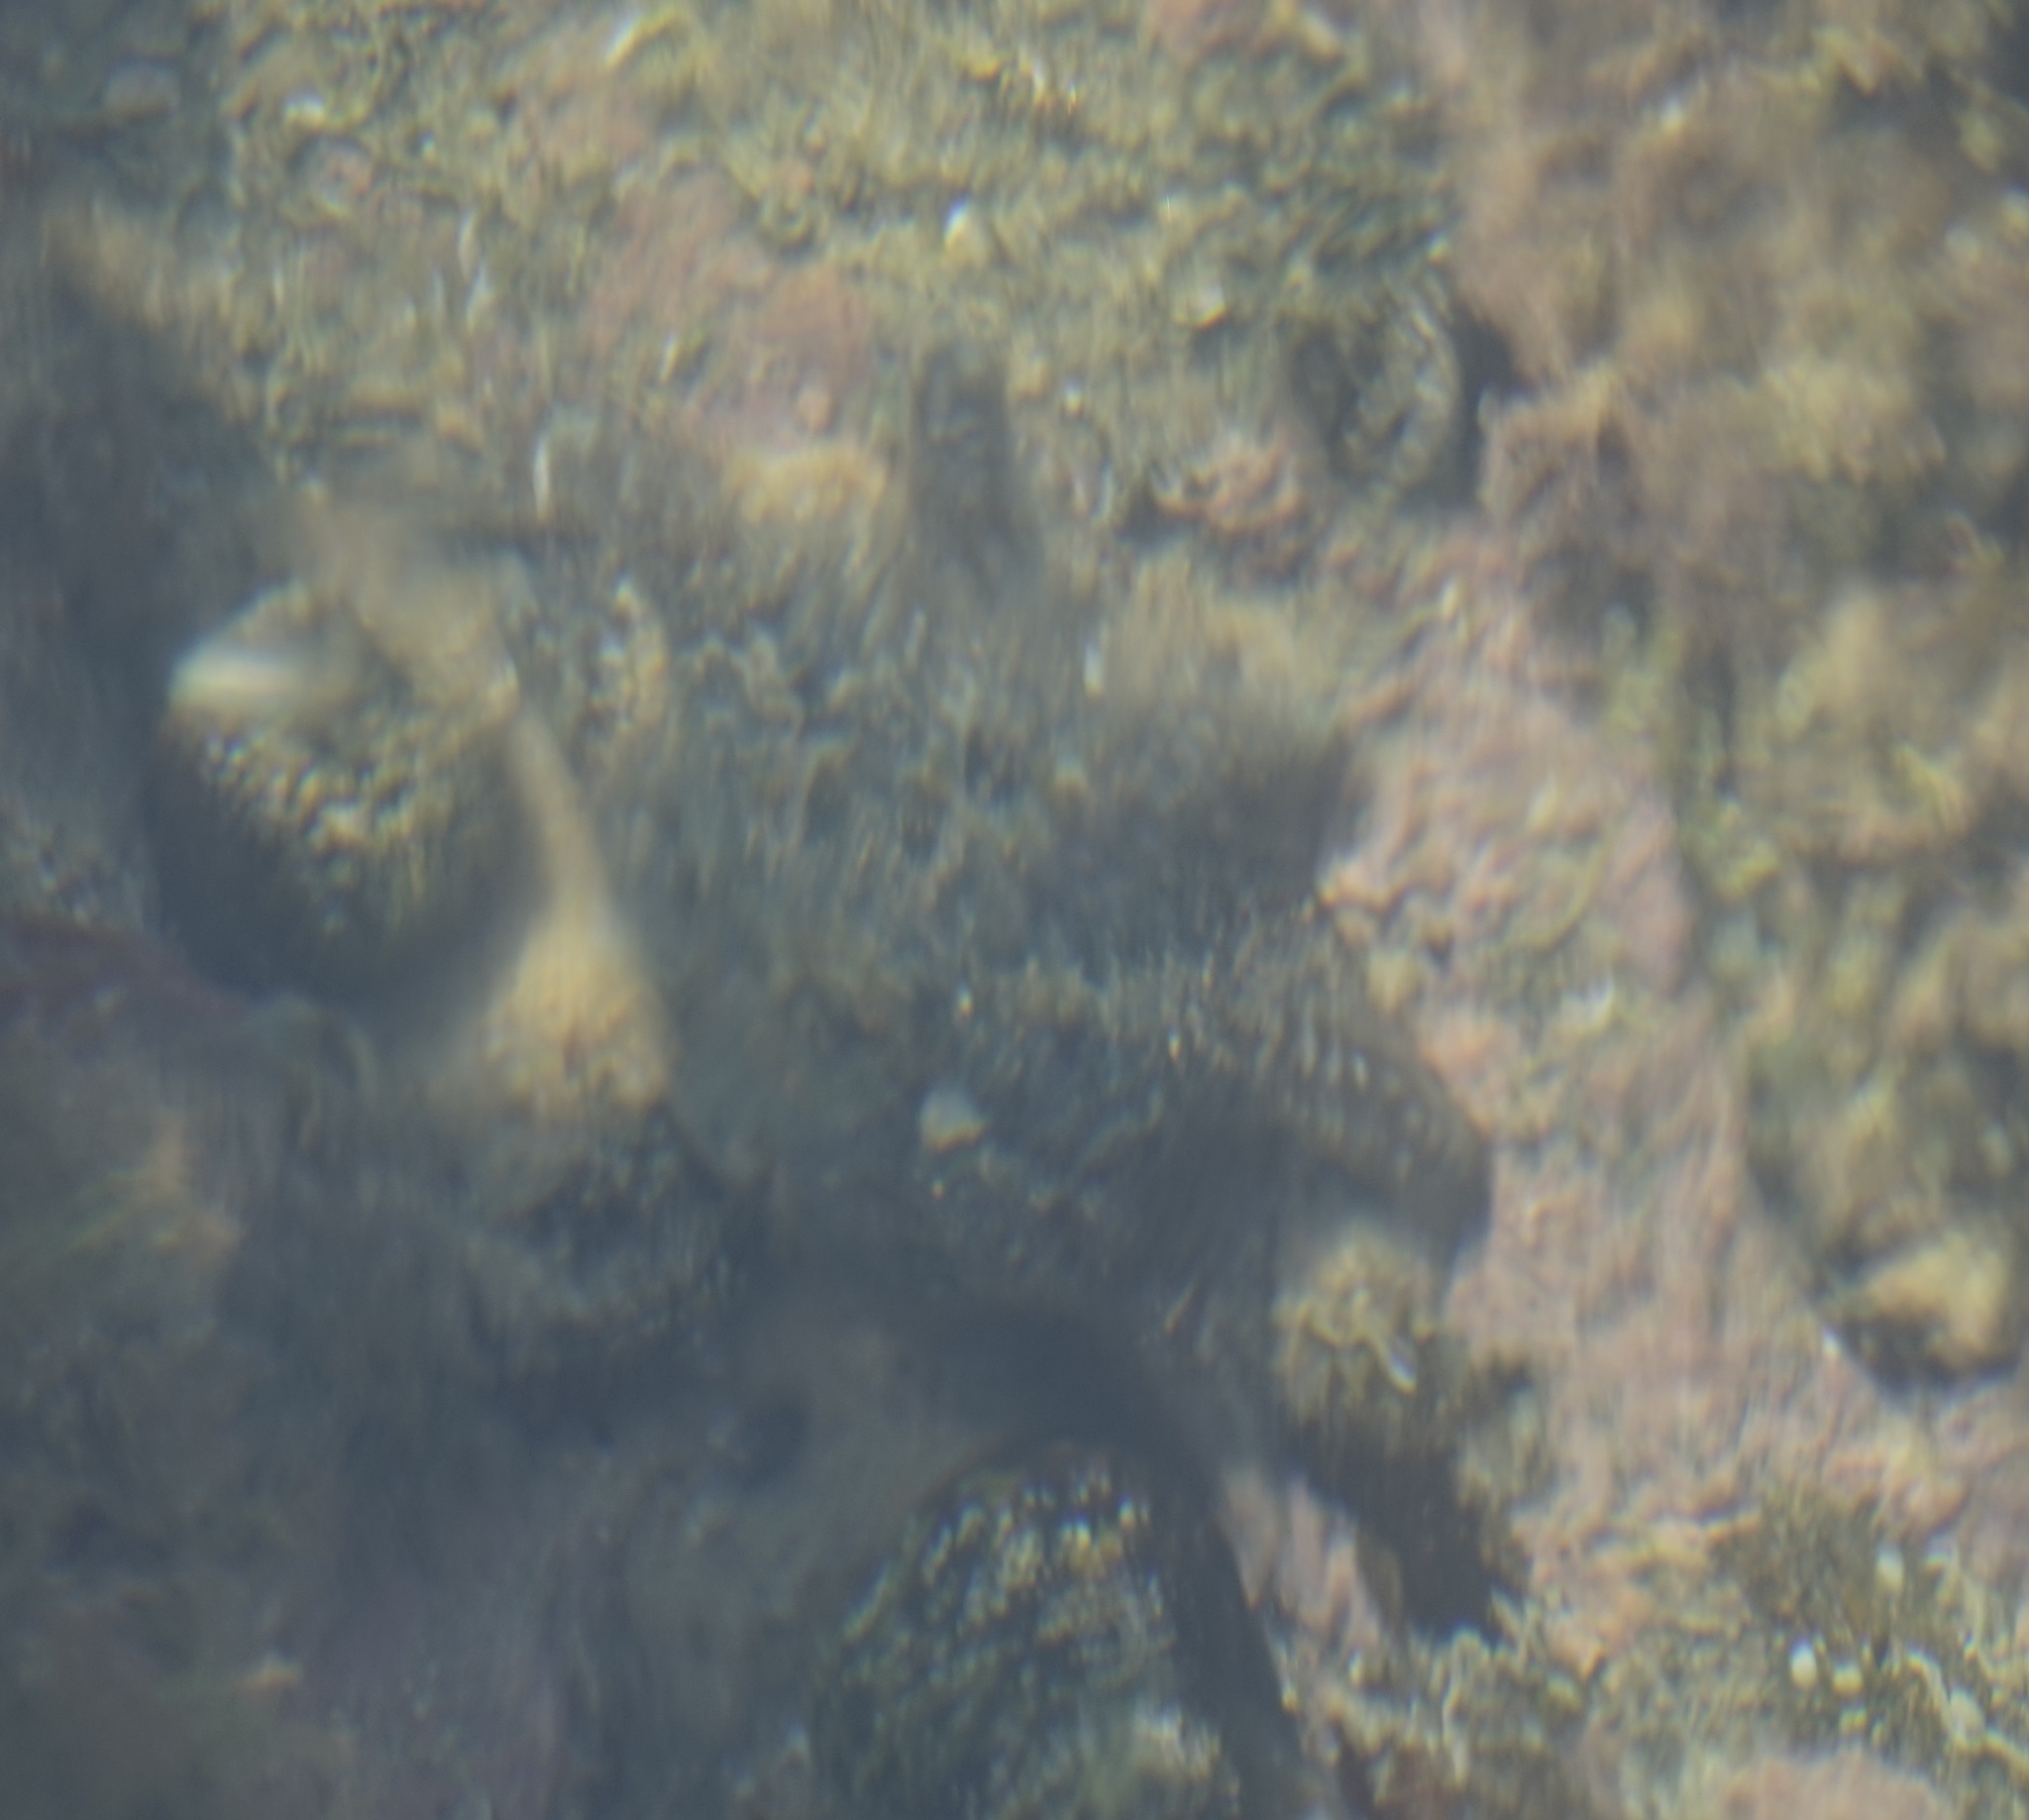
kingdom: Animalia
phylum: Echinodermata
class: Asteroidea
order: Valvatida
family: Asterinidae
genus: Meridiastra
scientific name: Meridiastra calcar
